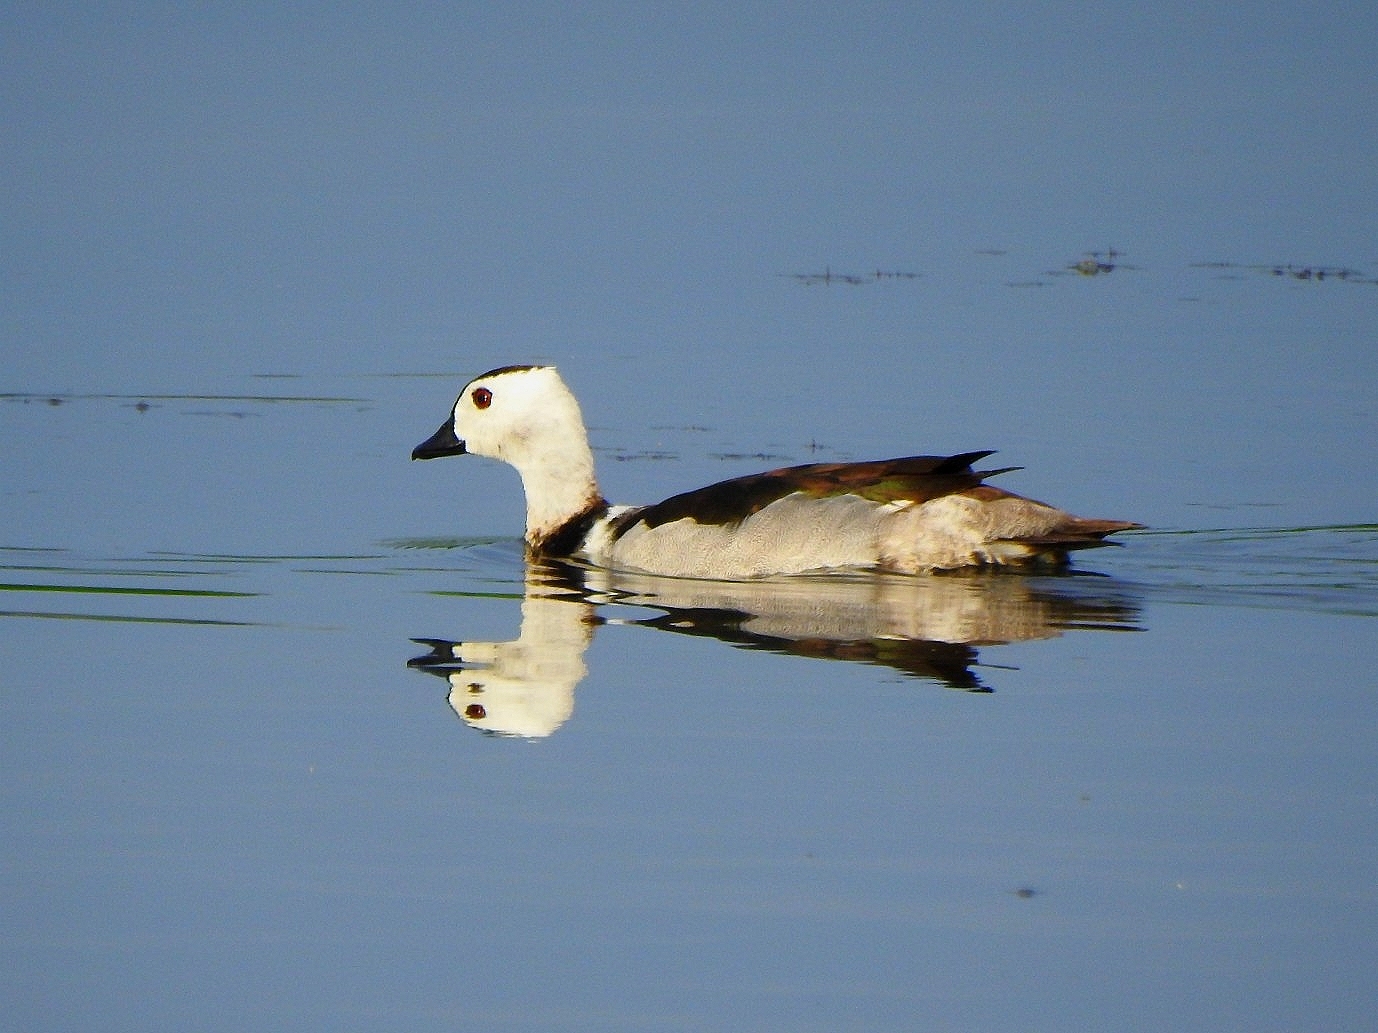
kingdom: Animalia
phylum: Chordata
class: Aves
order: Anseriformes
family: Anatidae
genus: Nettapus
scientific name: Nettapus coromandelianus
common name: Cotton pygmy-goose
